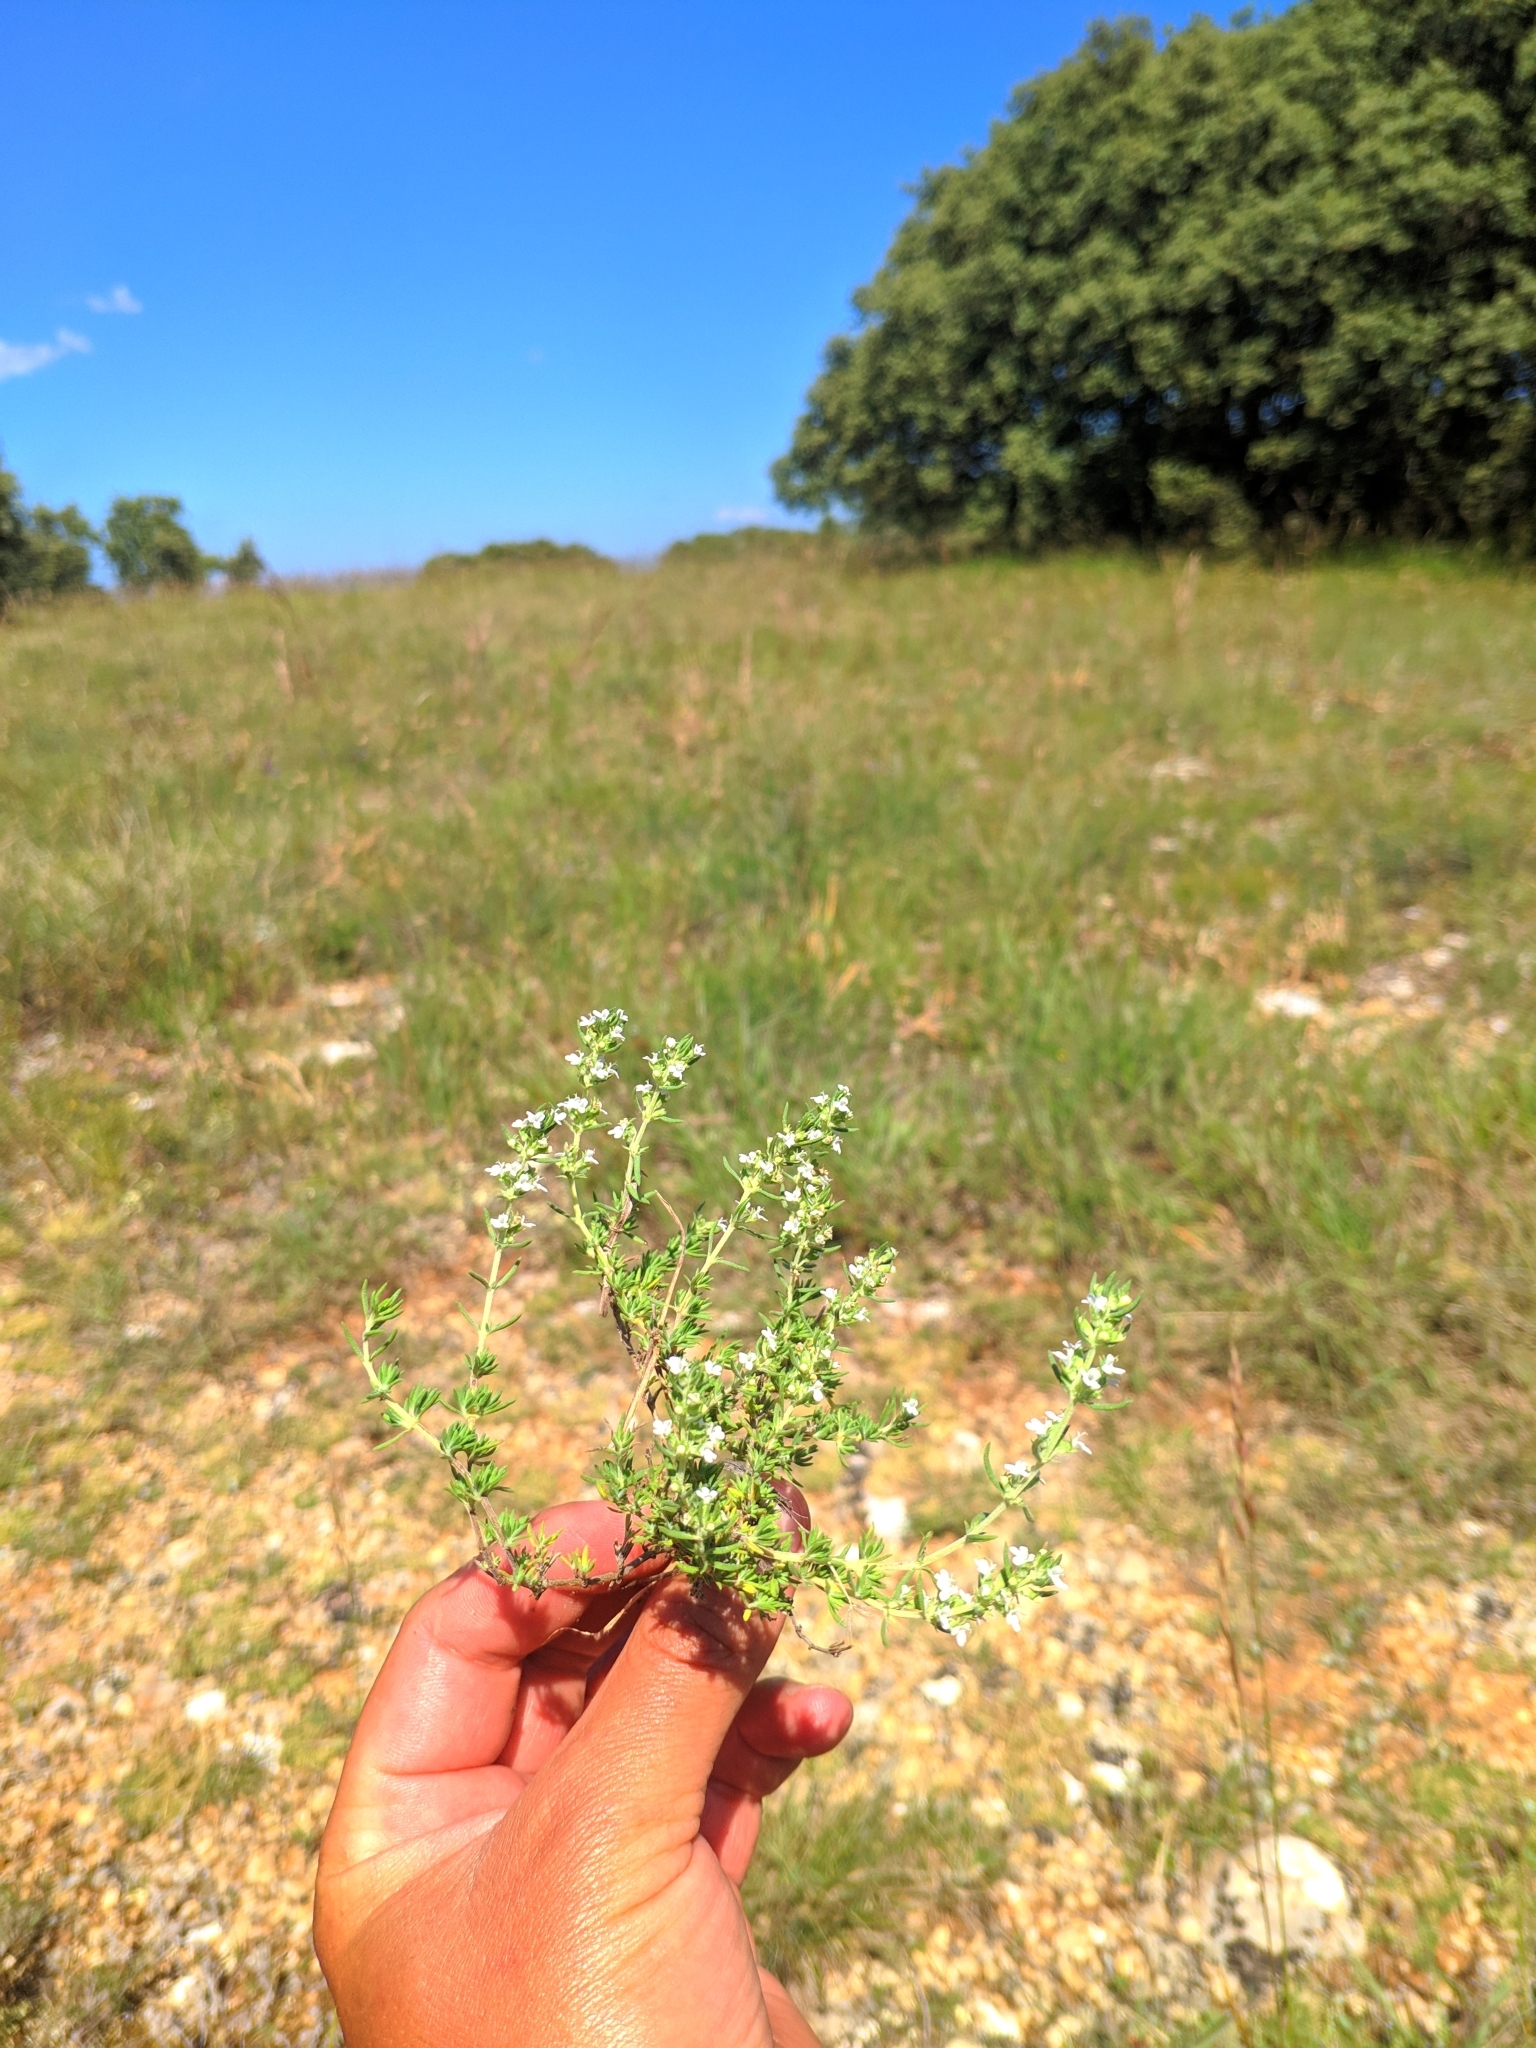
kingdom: Plantae
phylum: Tracheophyta
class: Magnoliopsida
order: Lamiales
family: Lamiaceae
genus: Thymus
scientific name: Thymus zygis
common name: White thyme
